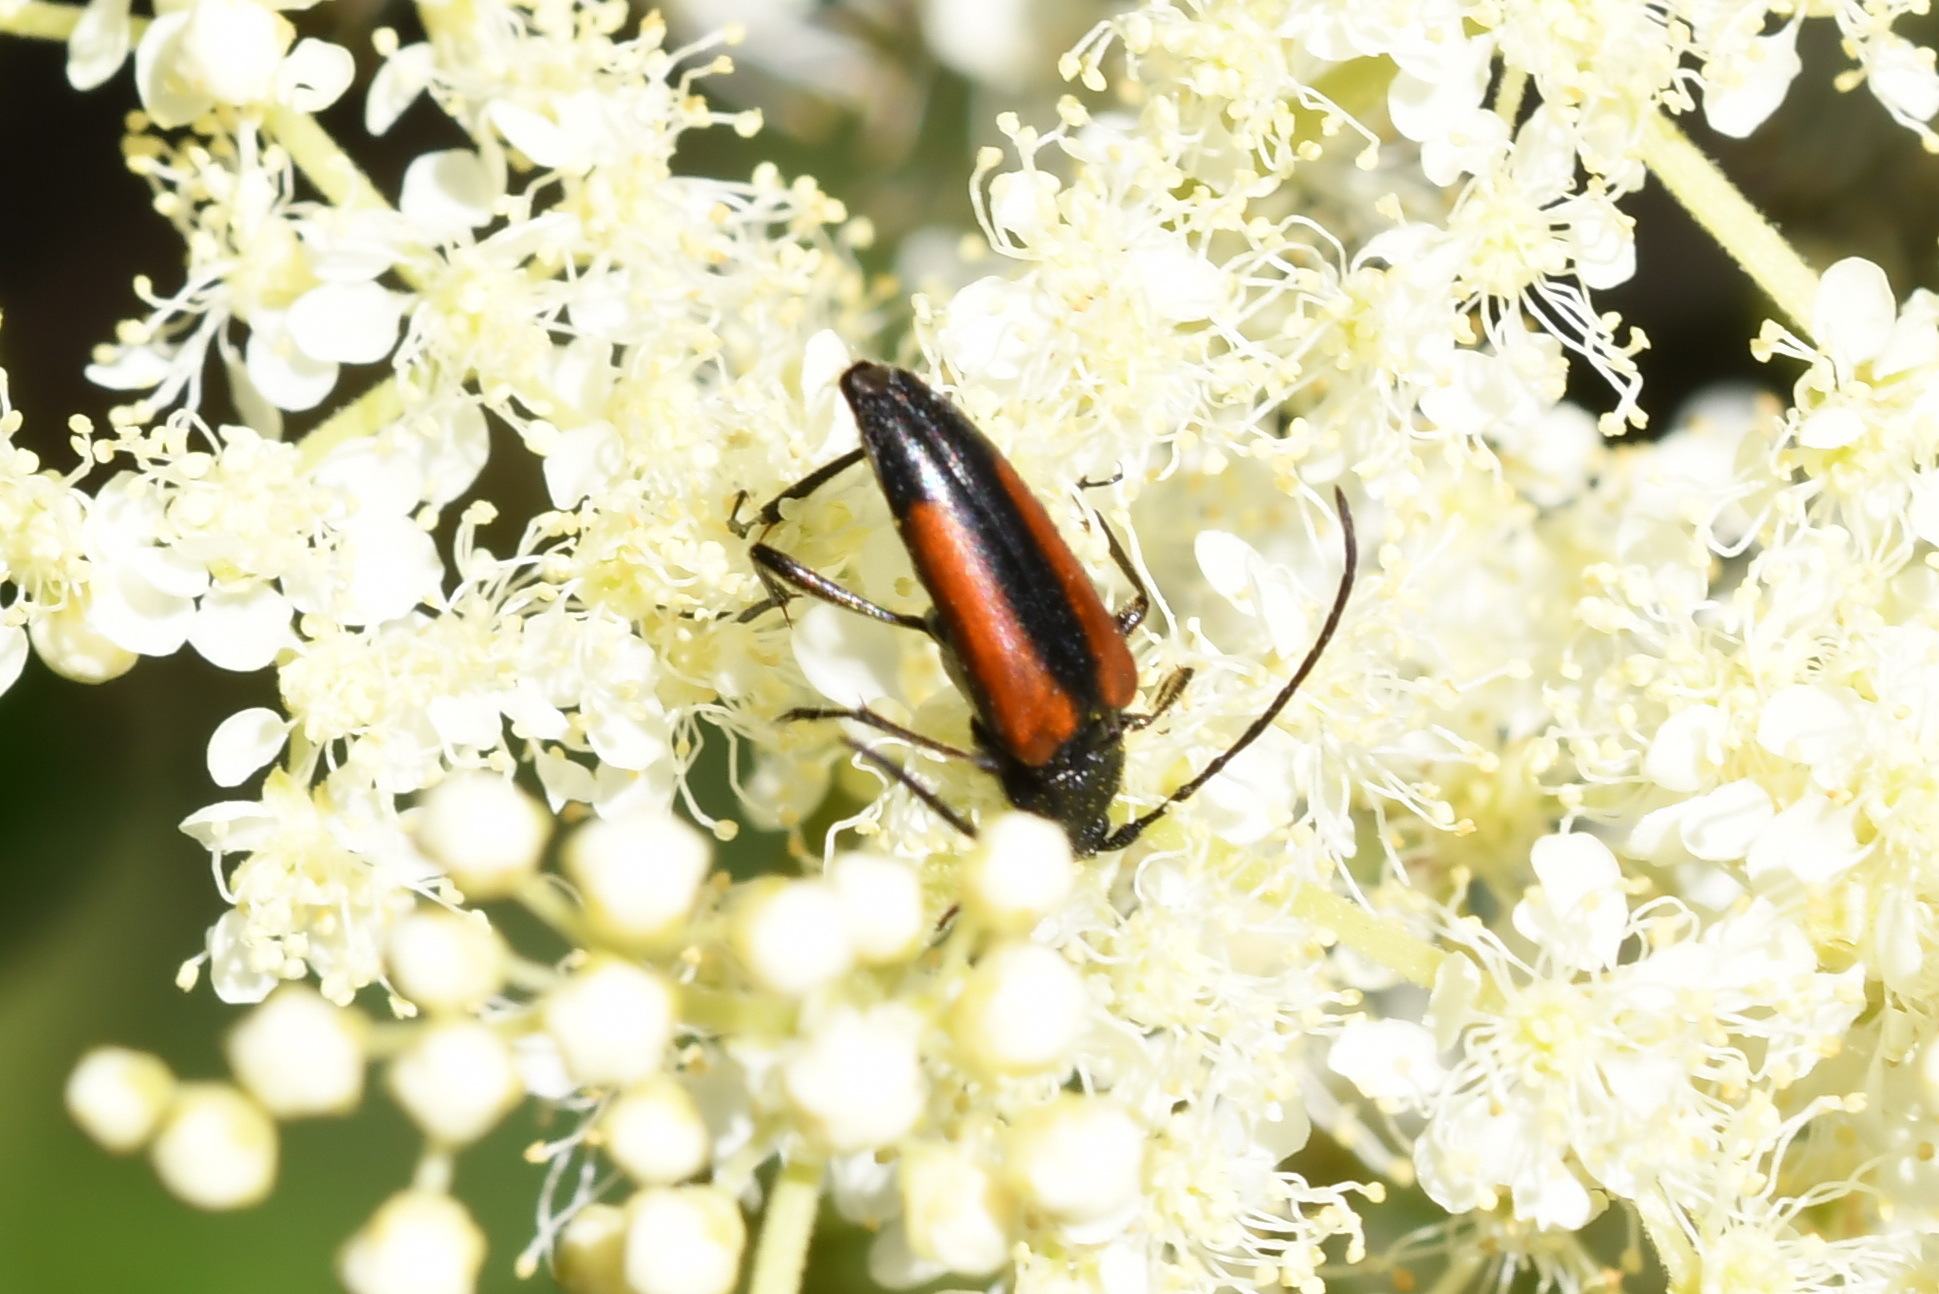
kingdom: Animalia
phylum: Arthropoda
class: Insecta
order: Coleoptera
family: Cerambycidae
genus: Stenurella
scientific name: Stenurella melanura
